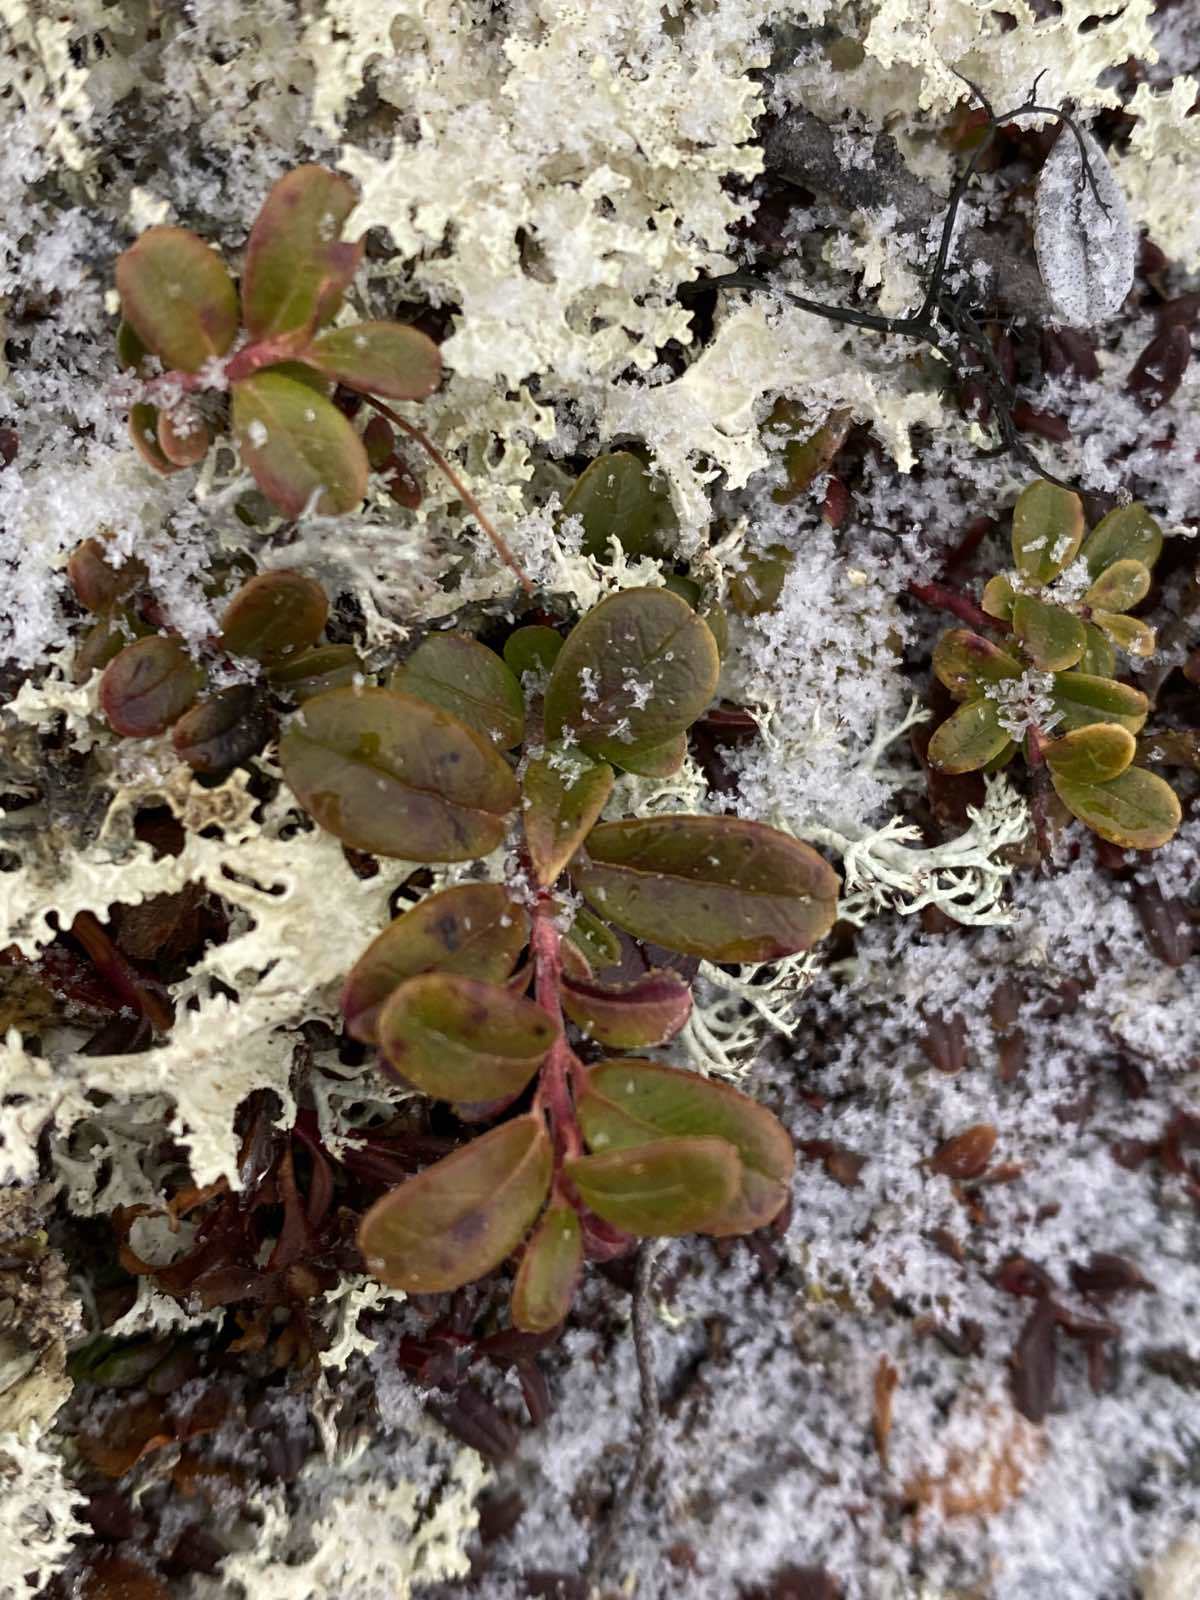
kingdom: Plantae
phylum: Tracheophyta
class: Magnoliopsida
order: Ericales
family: Ericaceae
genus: Vaccinium
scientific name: Vaccinium vitis-idaea
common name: Cowberry
